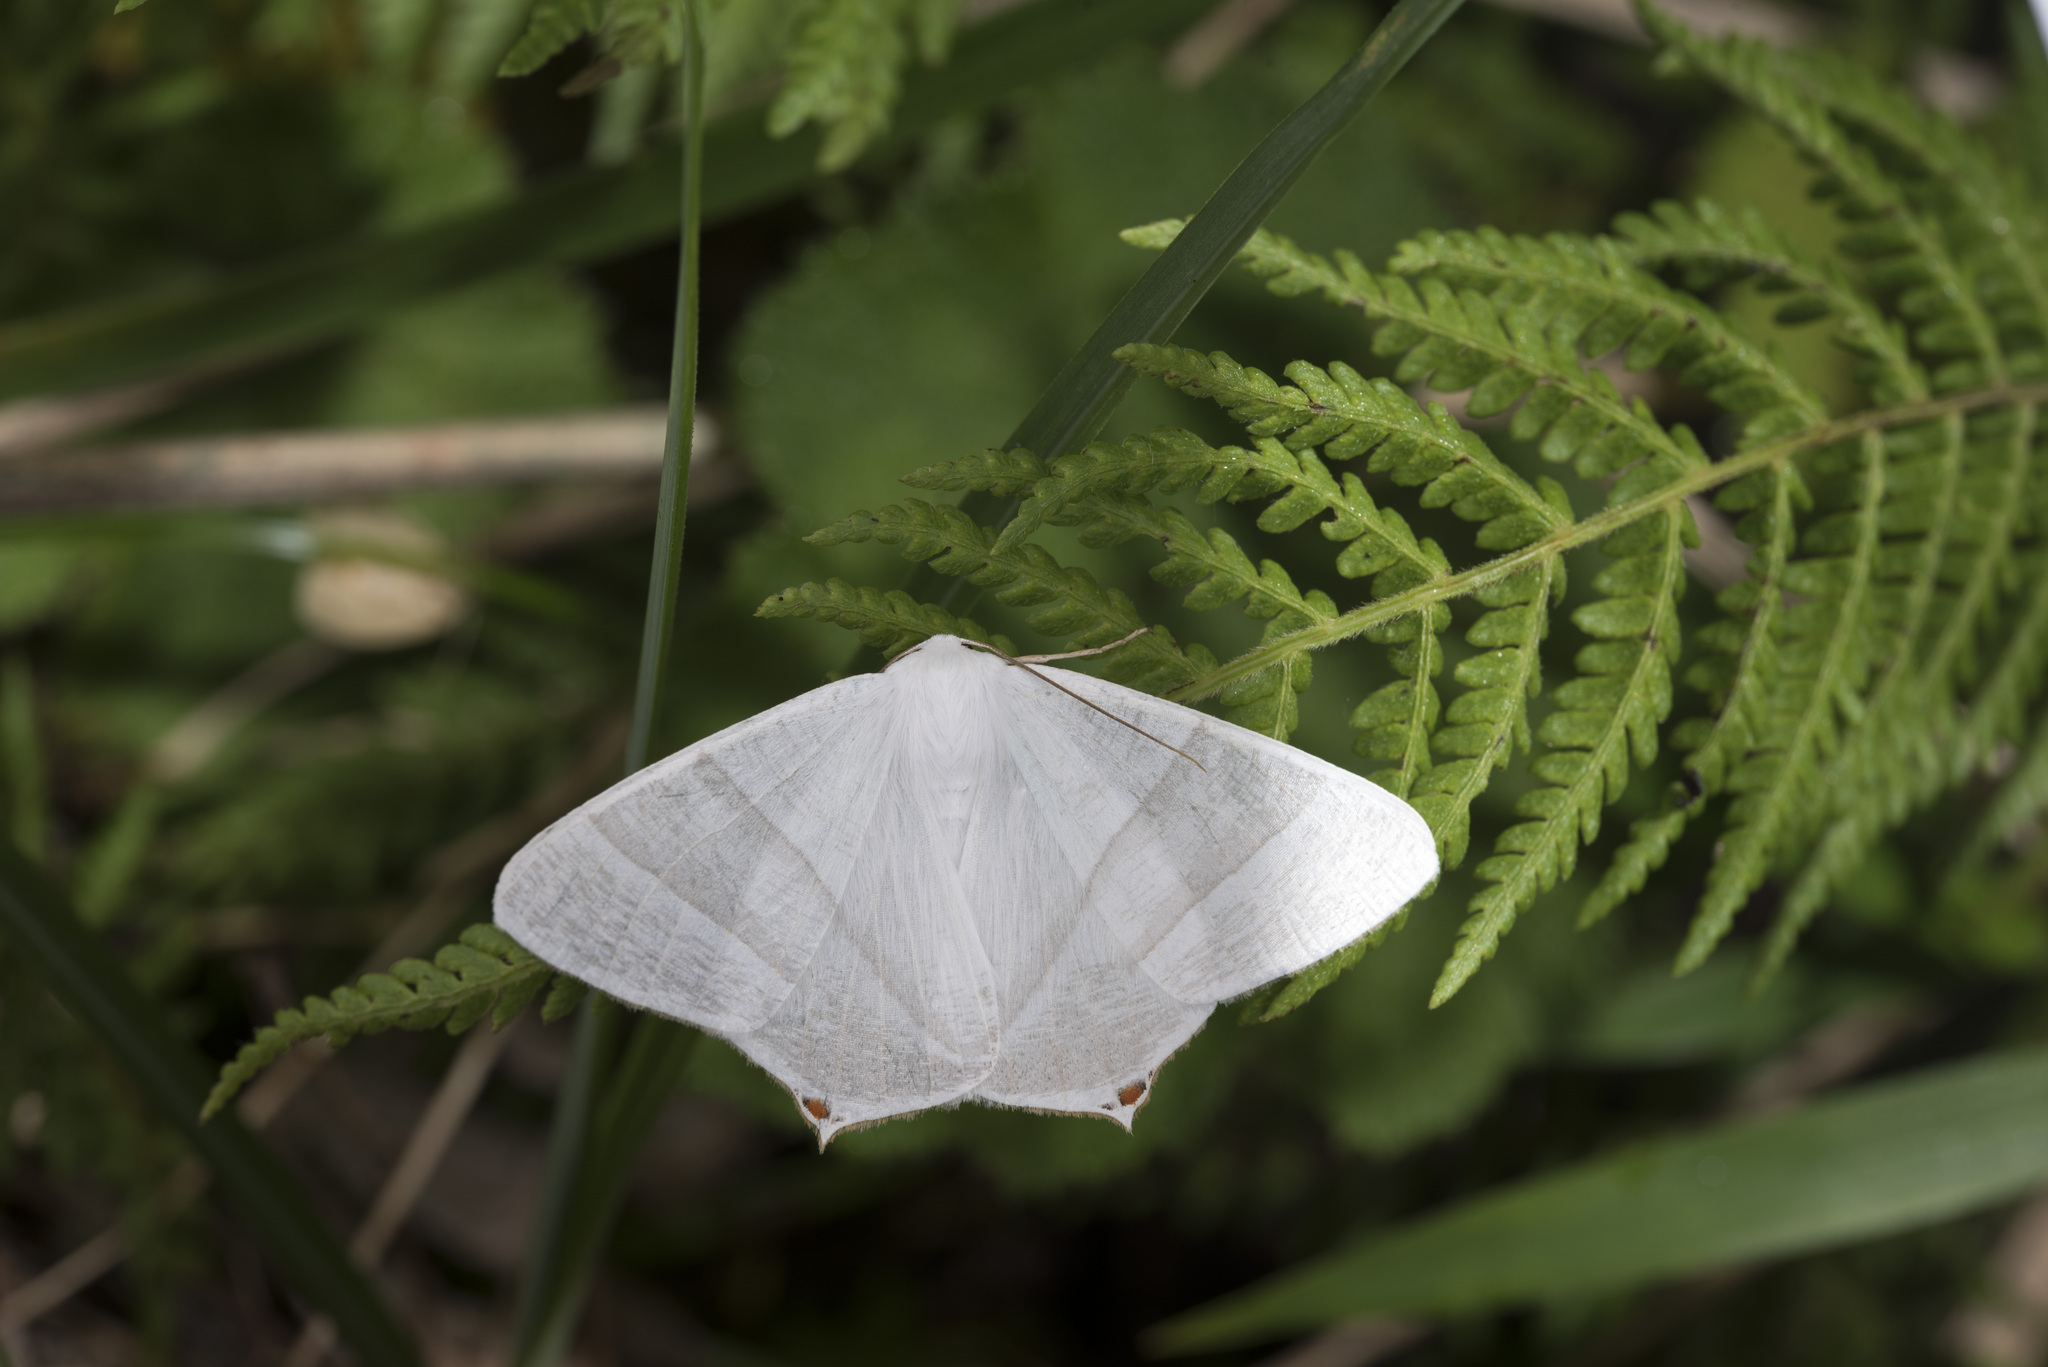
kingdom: Animalia
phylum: Arthropoda
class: Insecta
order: Lepidoptera
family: Geometridae
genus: Ourapteryx
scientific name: Ourapteryx caecata
